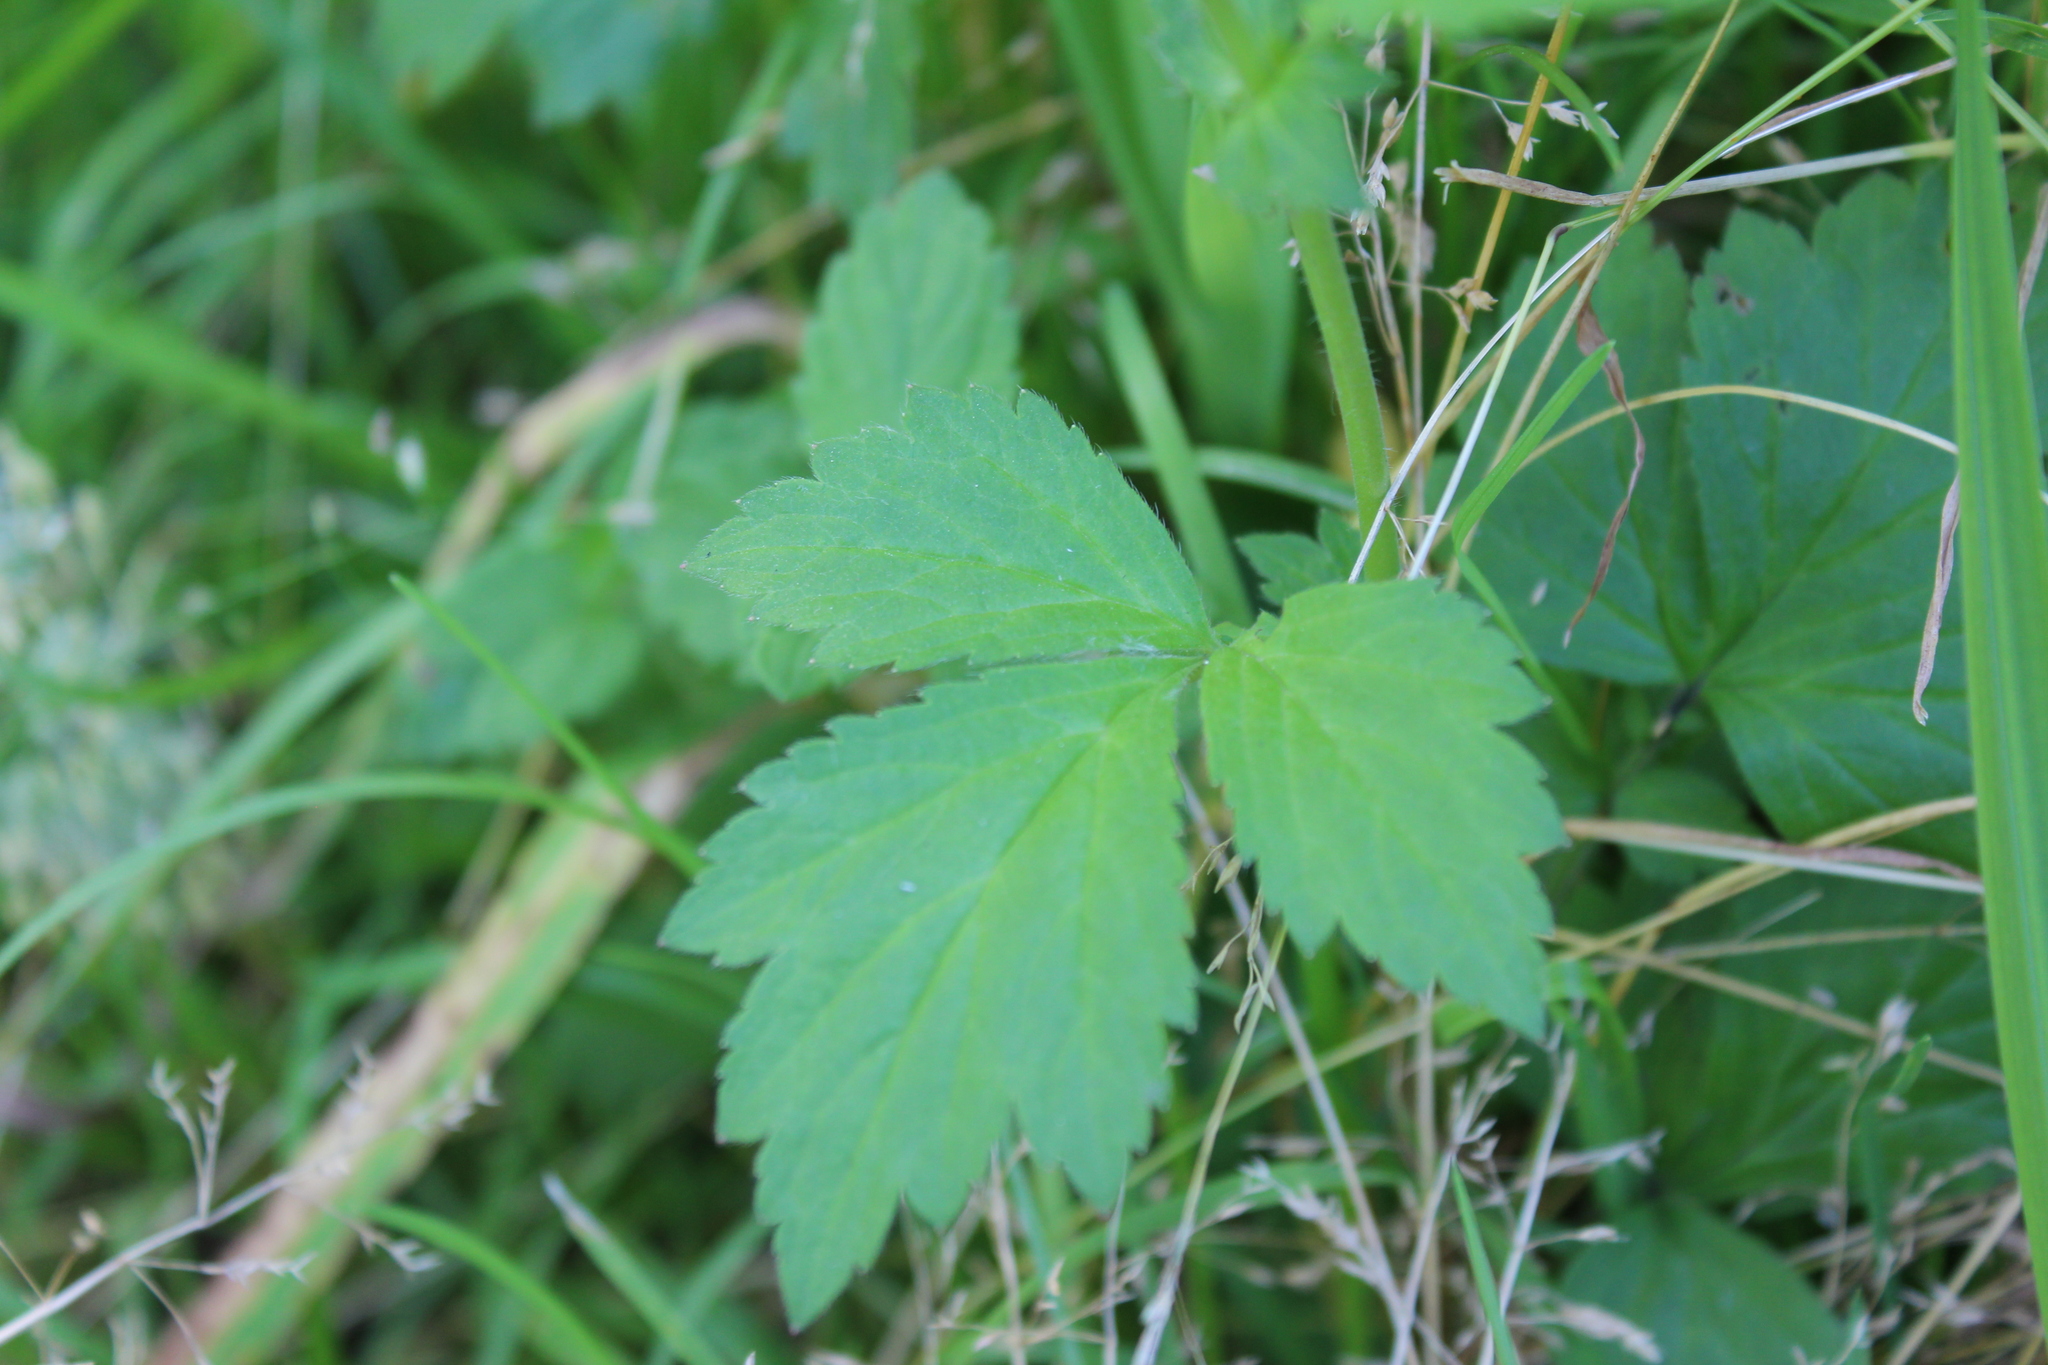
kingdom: Plantae
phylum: Tracheophyta
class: Magnoliopsida
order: Rosales
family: Rosaceae
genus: Geum
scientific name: Geum aleppicum
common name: Yellow avens
